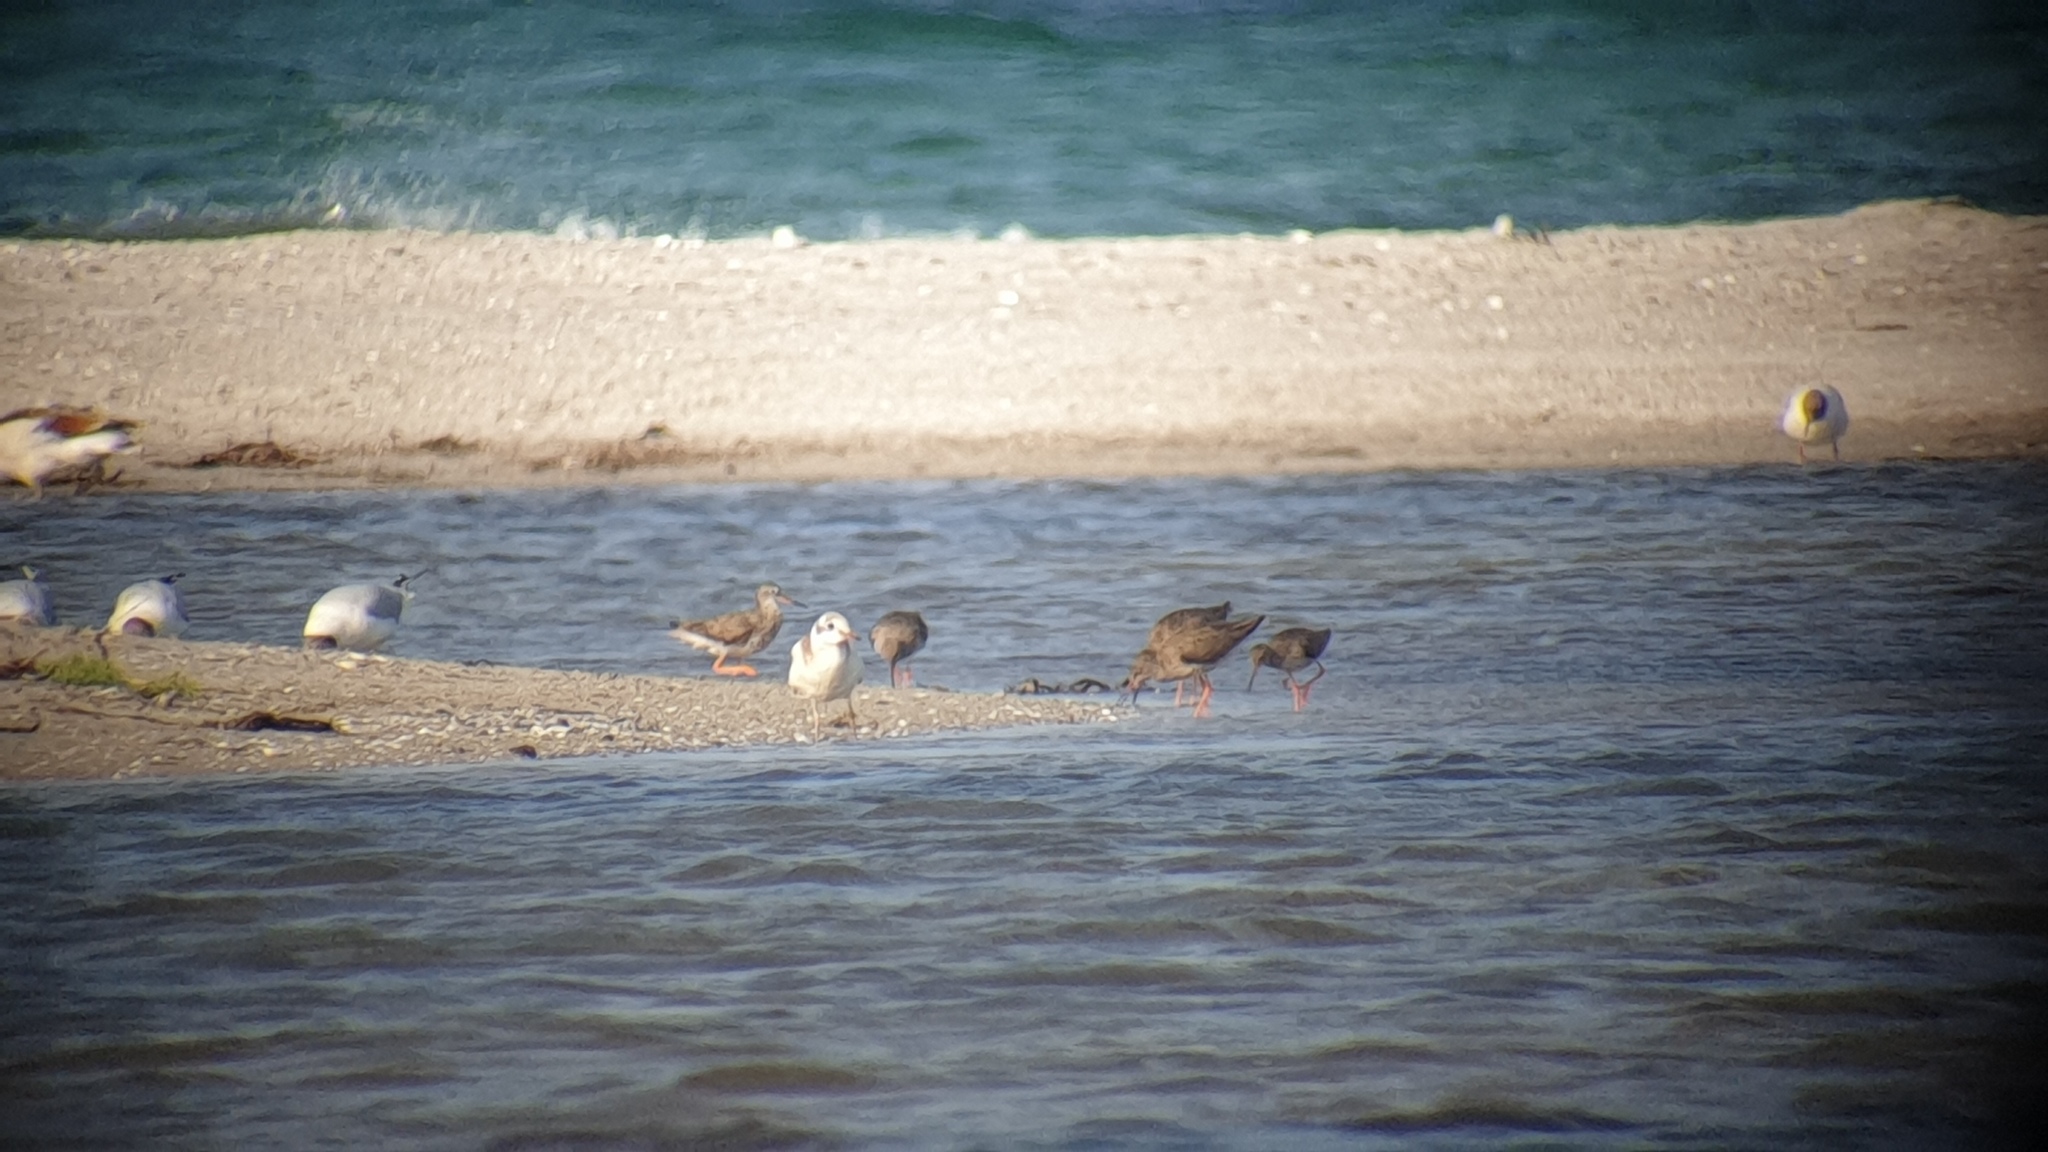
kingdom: Animalia
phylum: Chordata
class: Aves
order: Charadriiformes
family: Laridae
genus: Chroicocephalus
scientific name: Chroicocephalus ridibundus
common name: Black-headed gull
